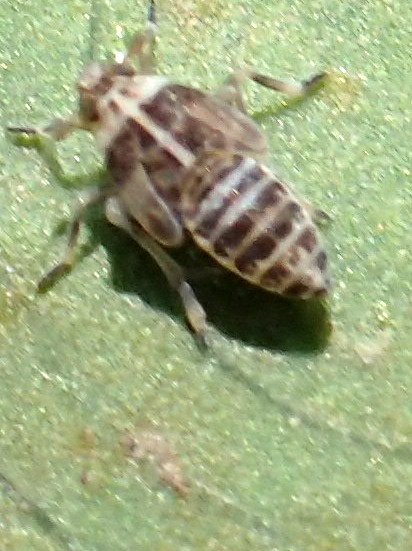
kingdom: Animalia
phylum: Arthropoda
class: Insecta
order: Hemiptera
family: Delphacidae
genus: Tarophagus
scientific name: Tarophagus colocasiae
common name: Taro planthopper
